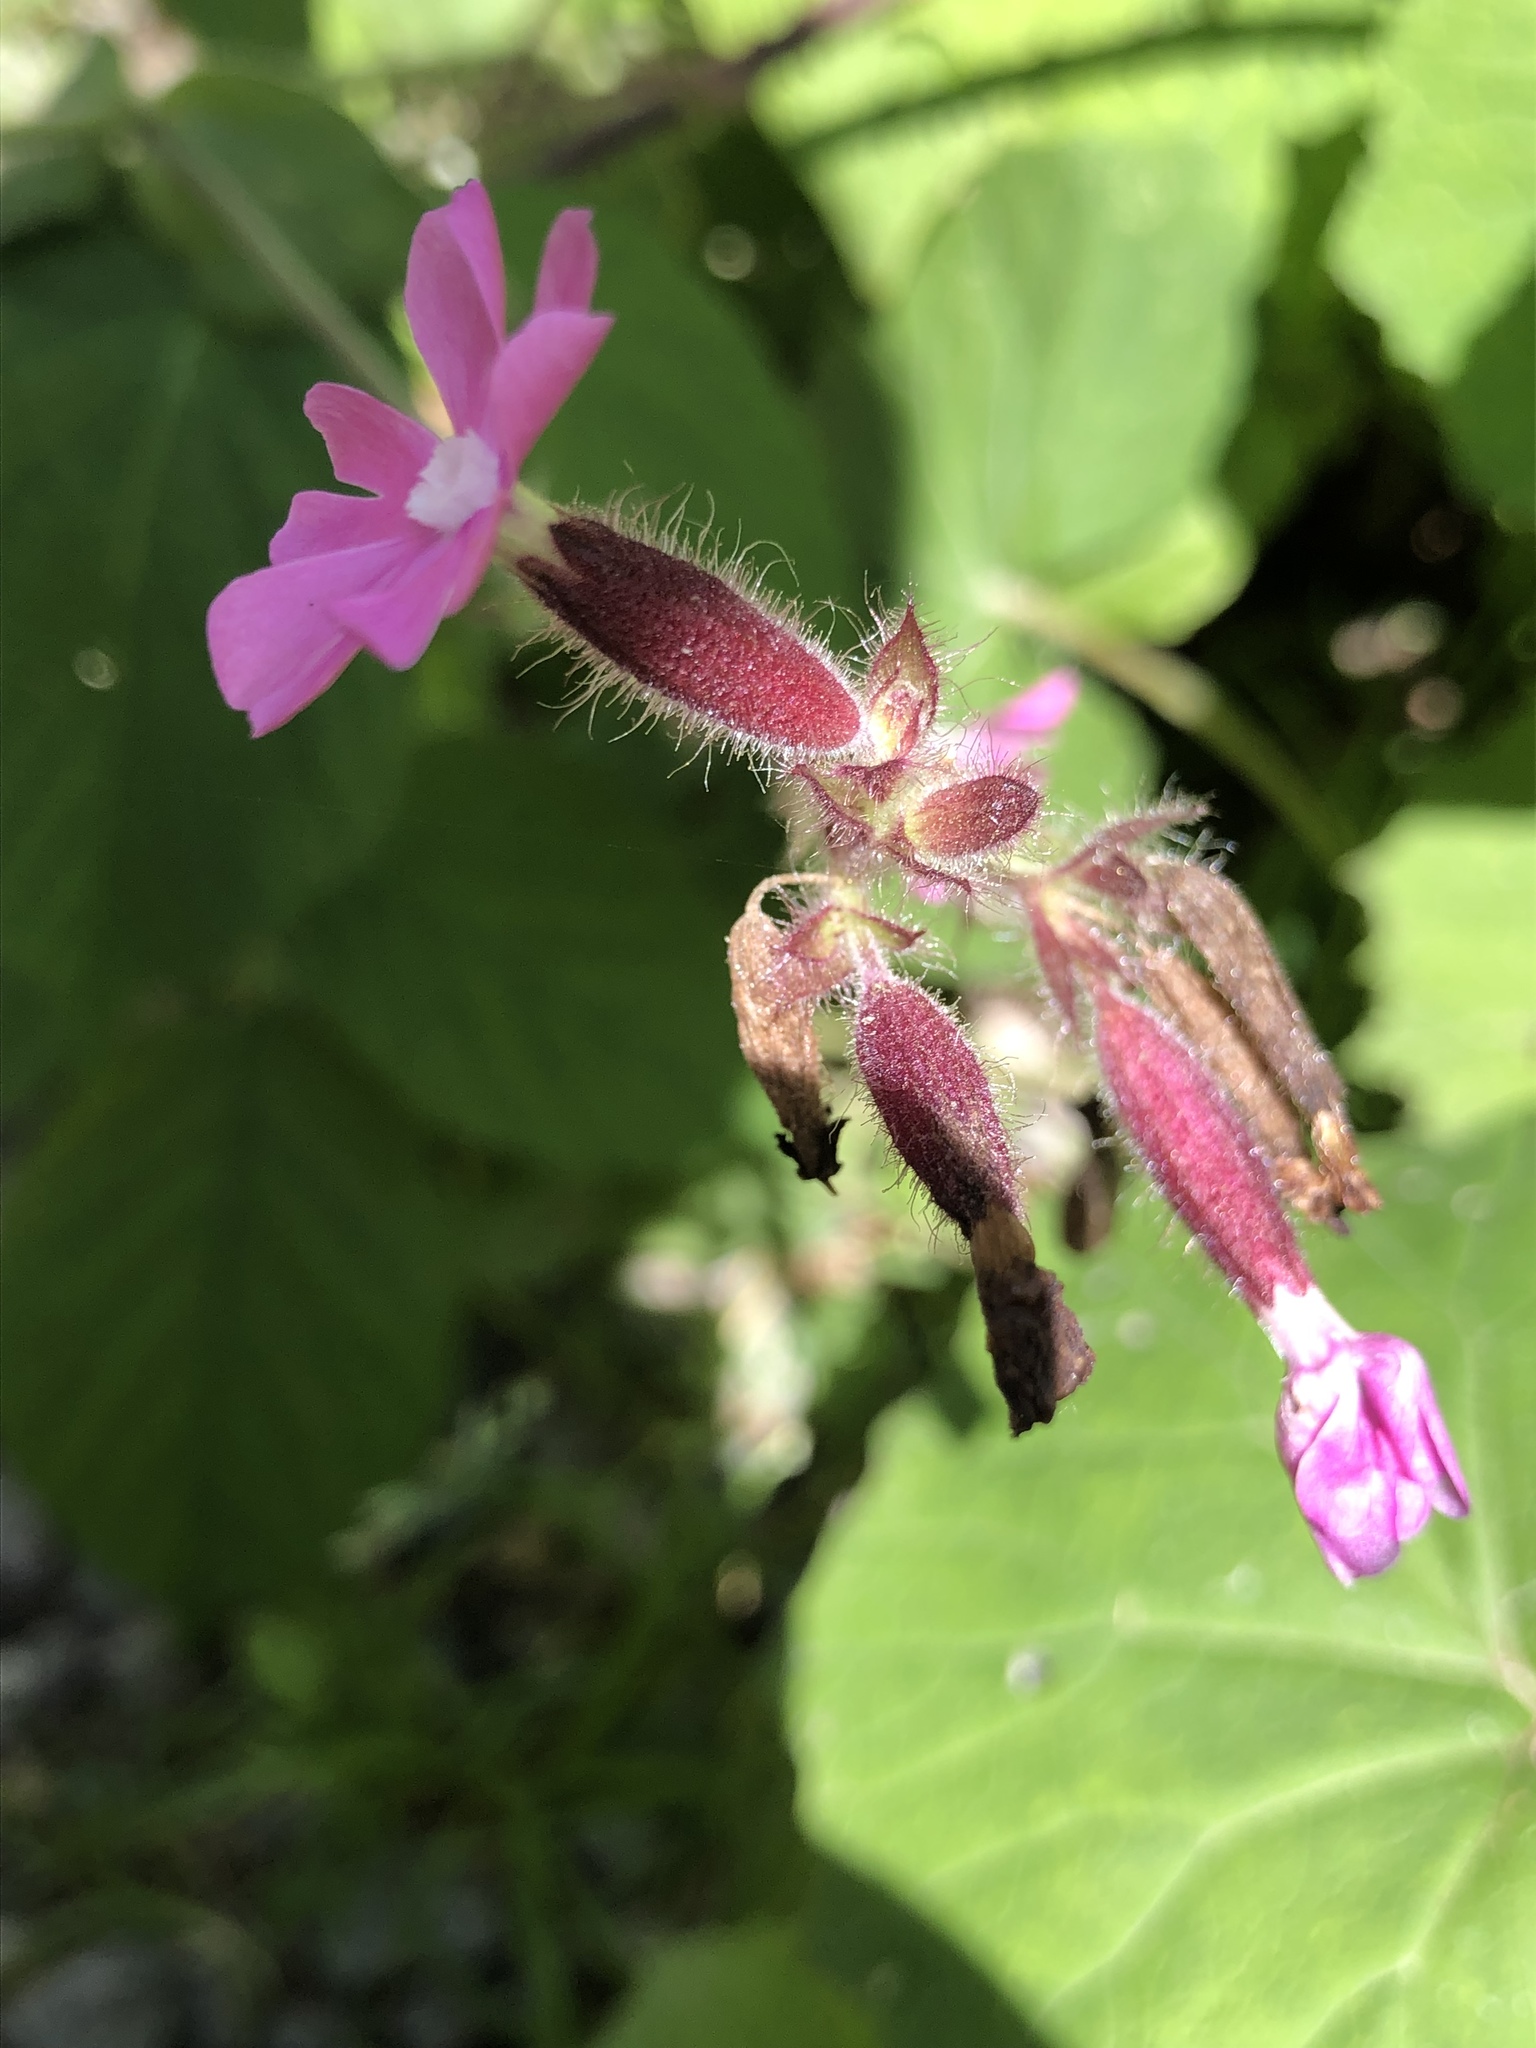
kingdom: Plantae
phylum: Tracheophyta
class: Magnoliopsida
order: Caryophyllales
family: Caryophyllaceae
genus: Silene
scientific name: Silene dioica
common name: Red campion
